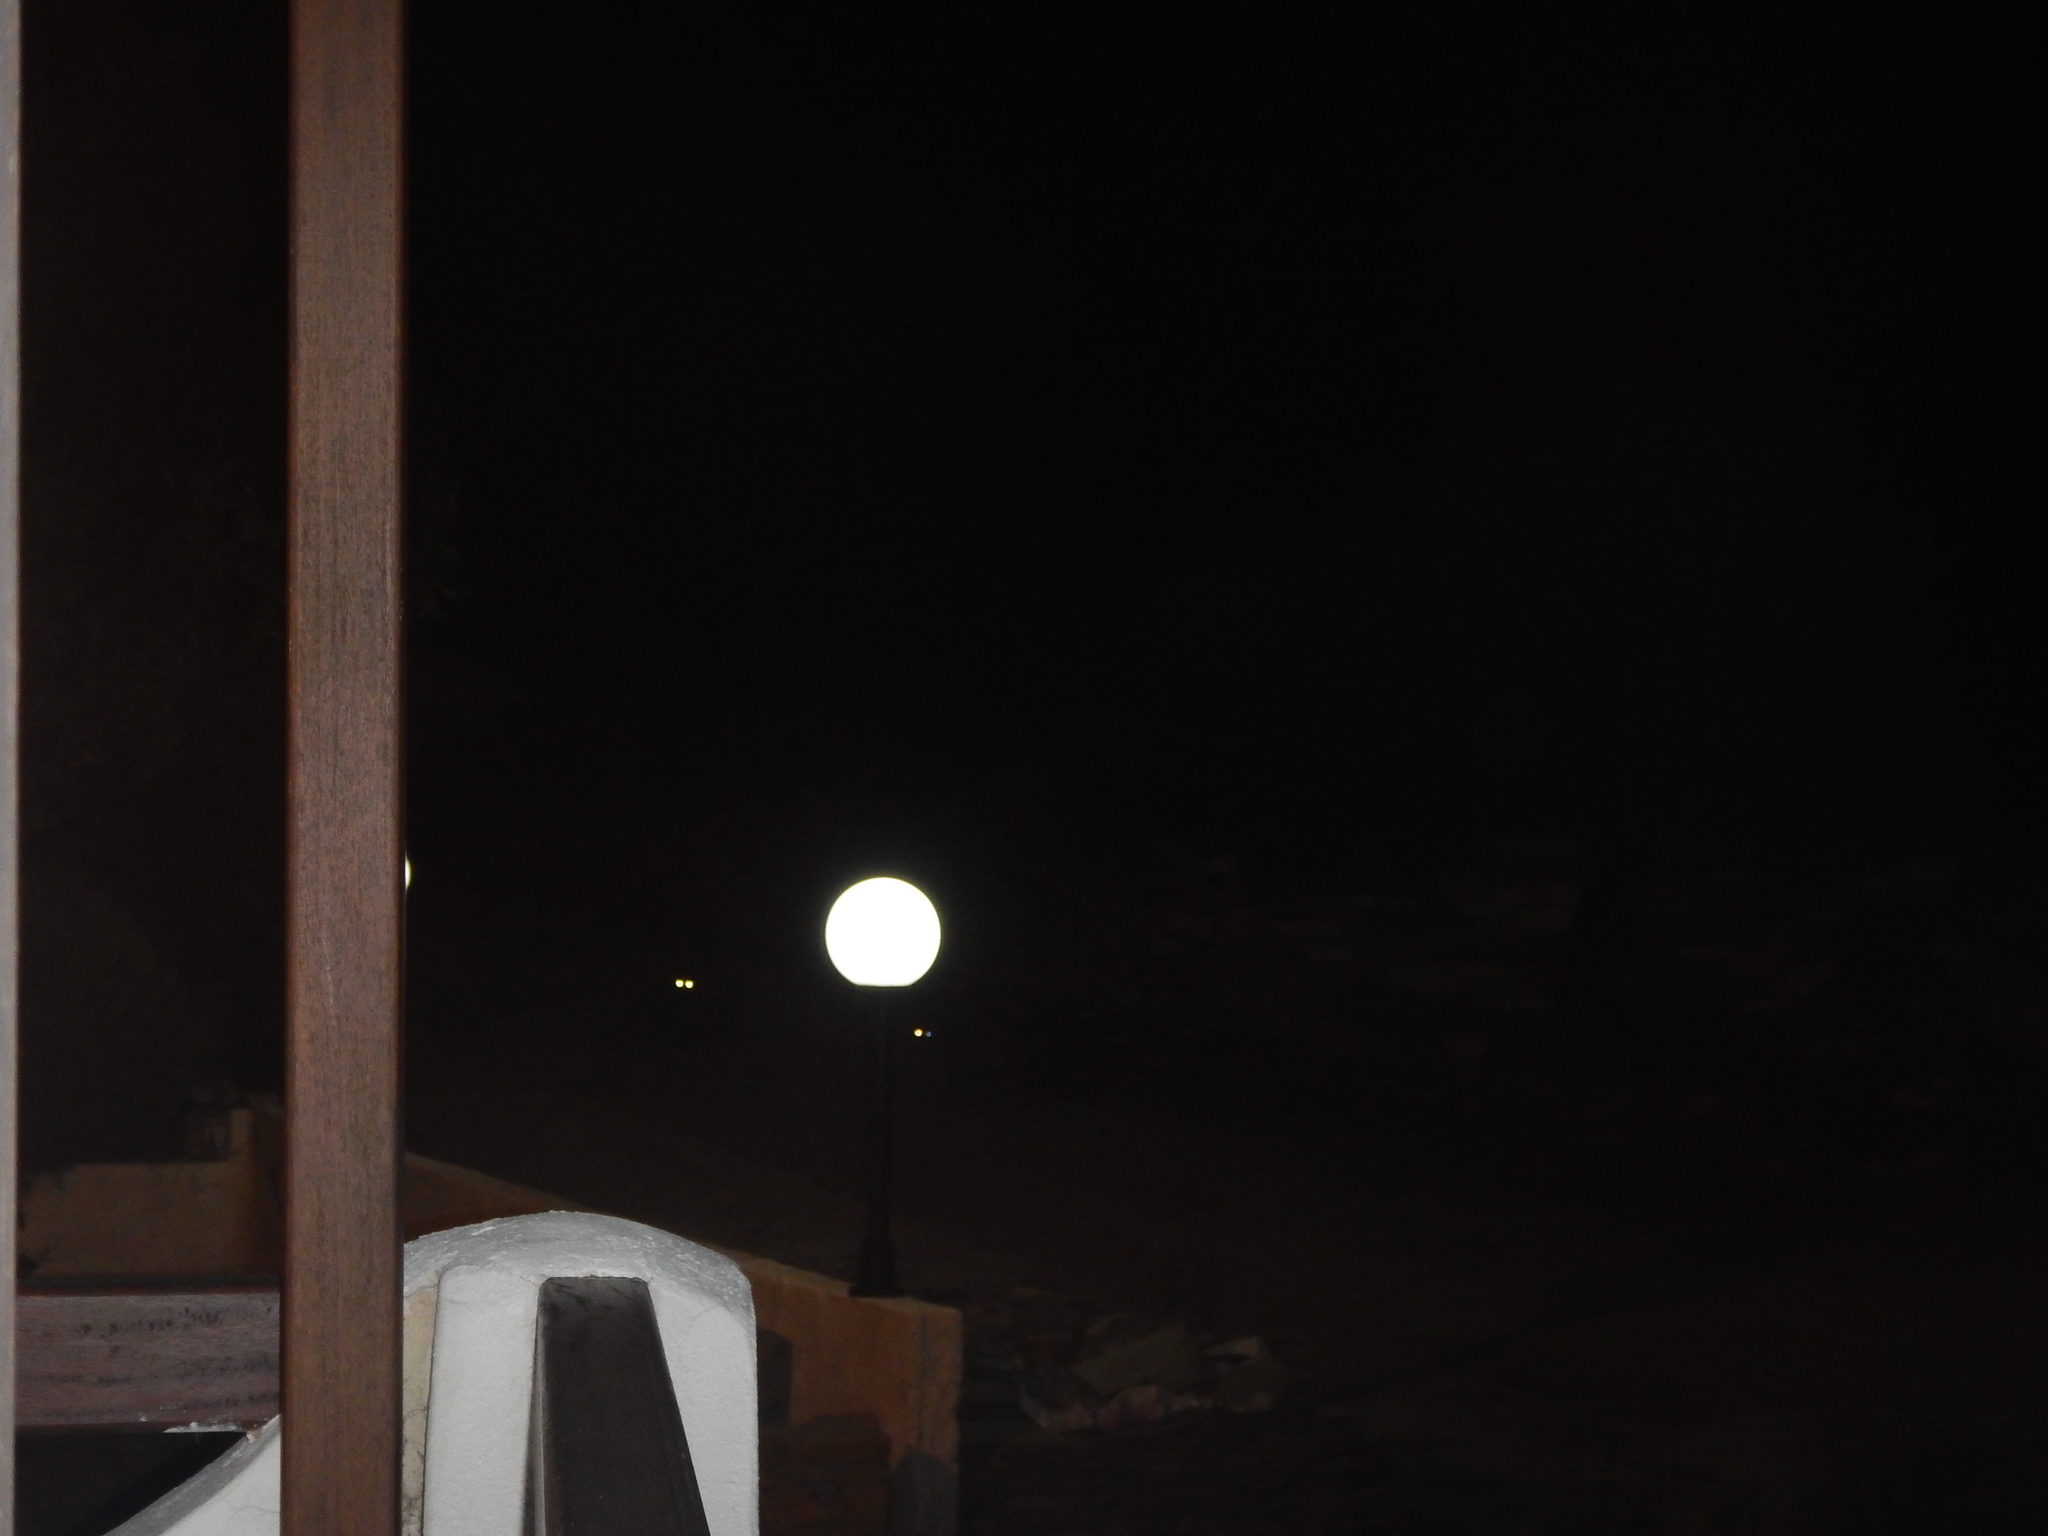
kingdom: Animalia
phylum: Chordata
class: Mammalia
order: Carnivora
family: Canidae
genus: Vulpes
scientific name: Vulpes vulpes
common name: Red fox
